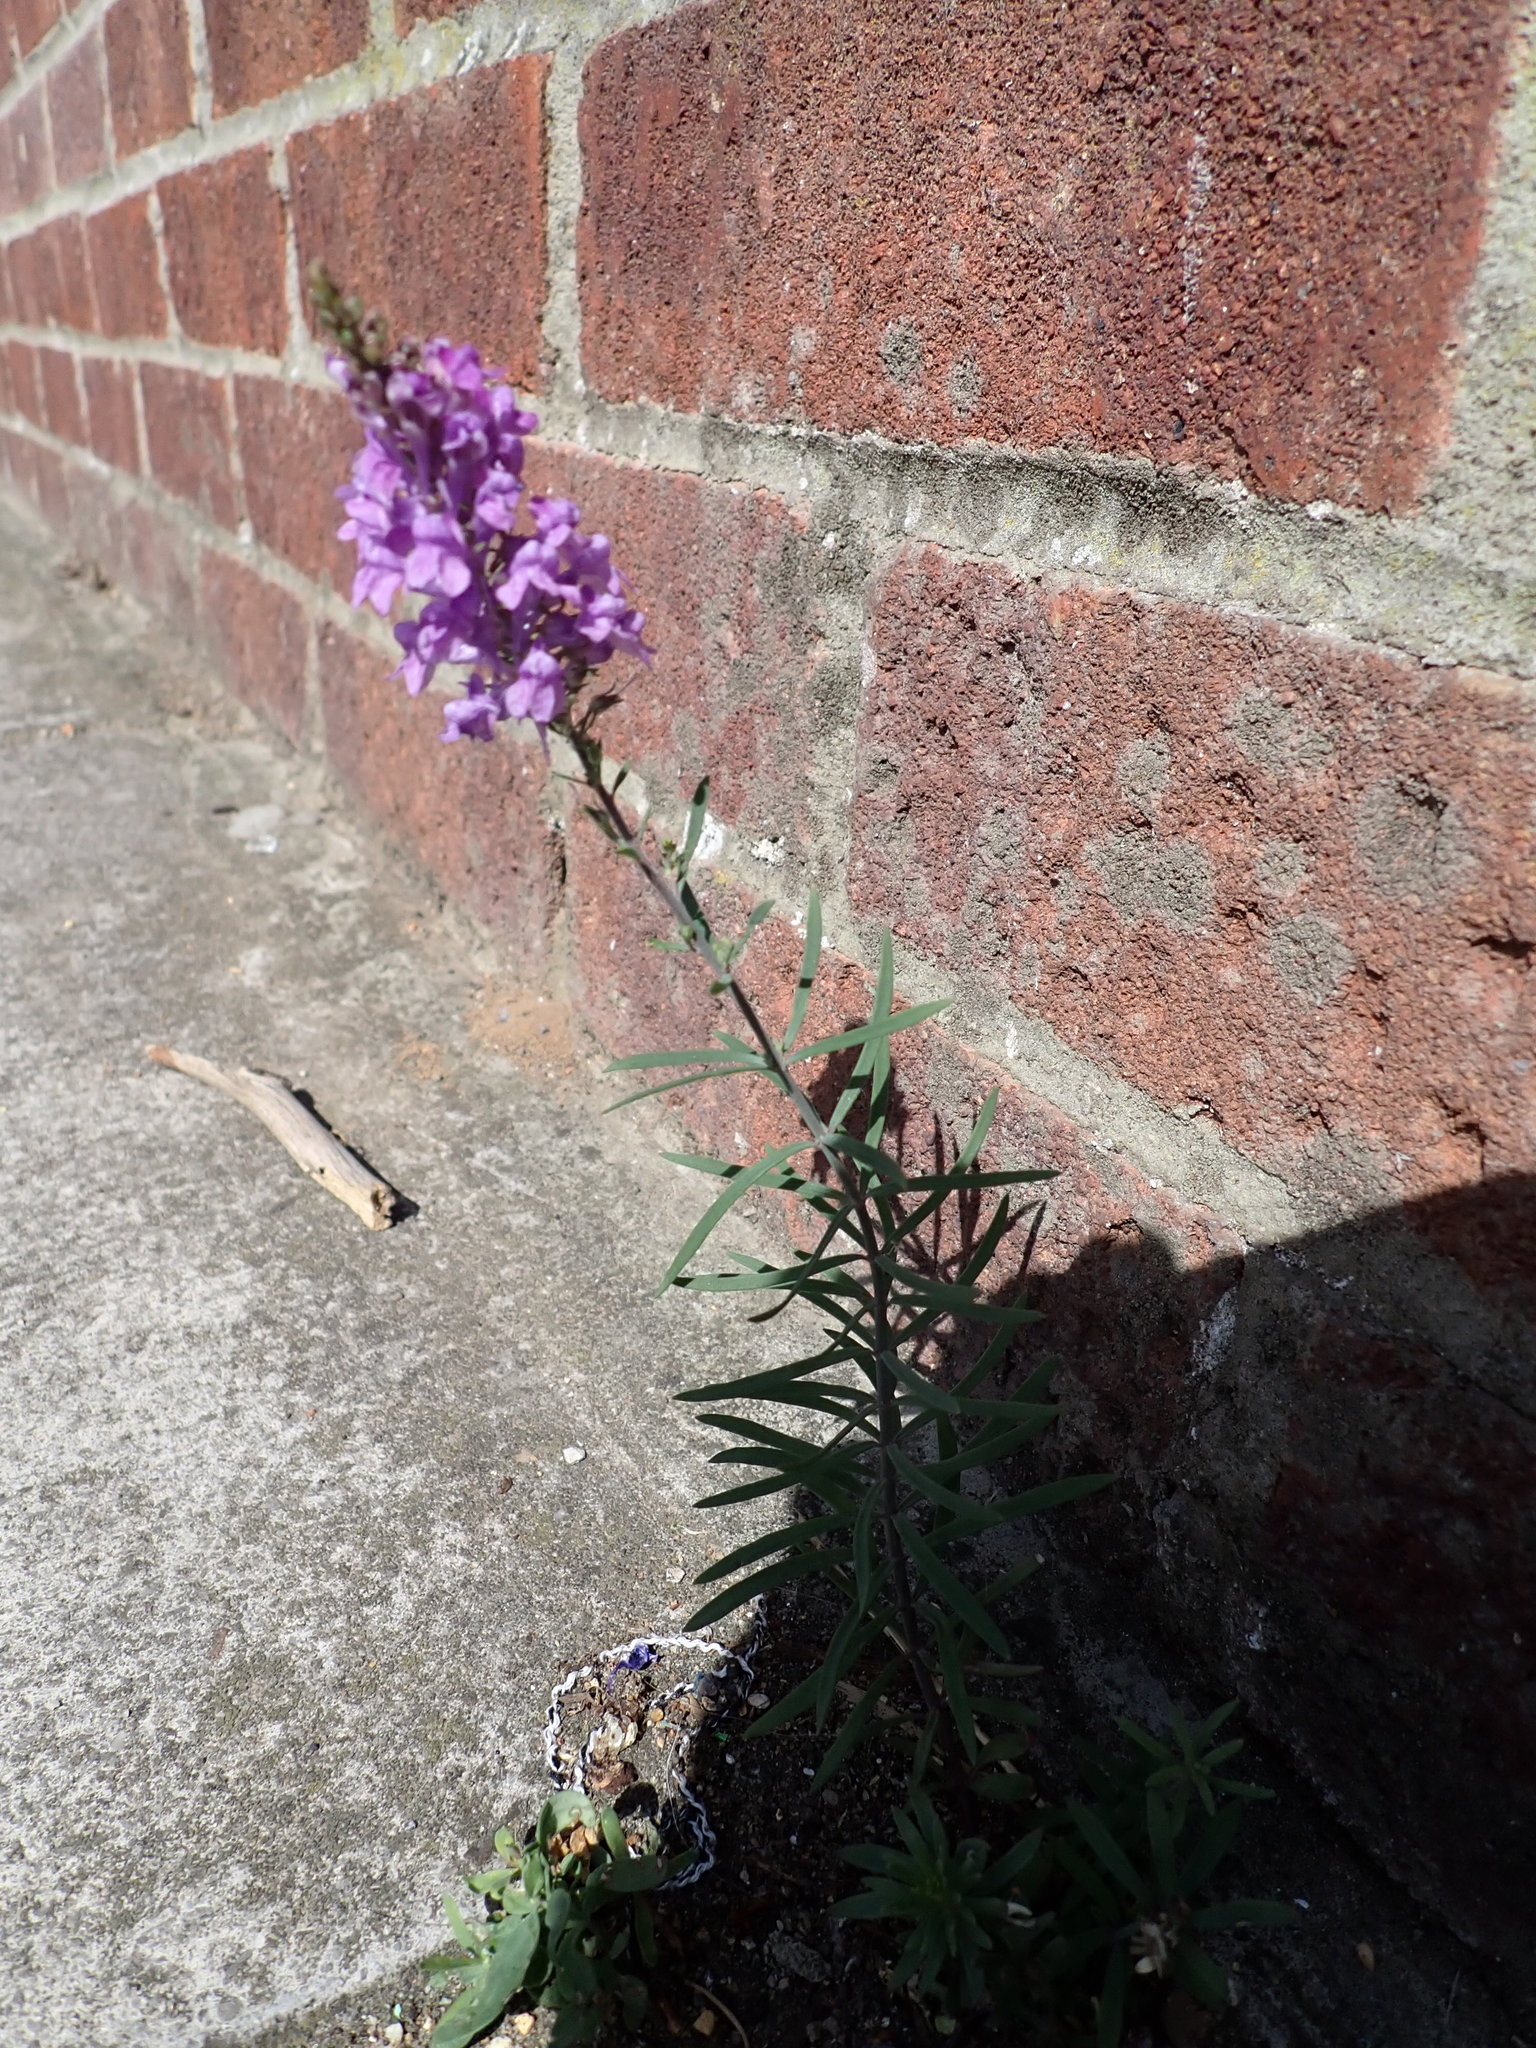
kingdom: Plantae
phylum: Tracheophyta
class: Magnoliopsida
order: Lamiales
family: Plantaginaceae
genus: Linaria
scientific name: Linaria purpurea
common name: Purple toadflax
